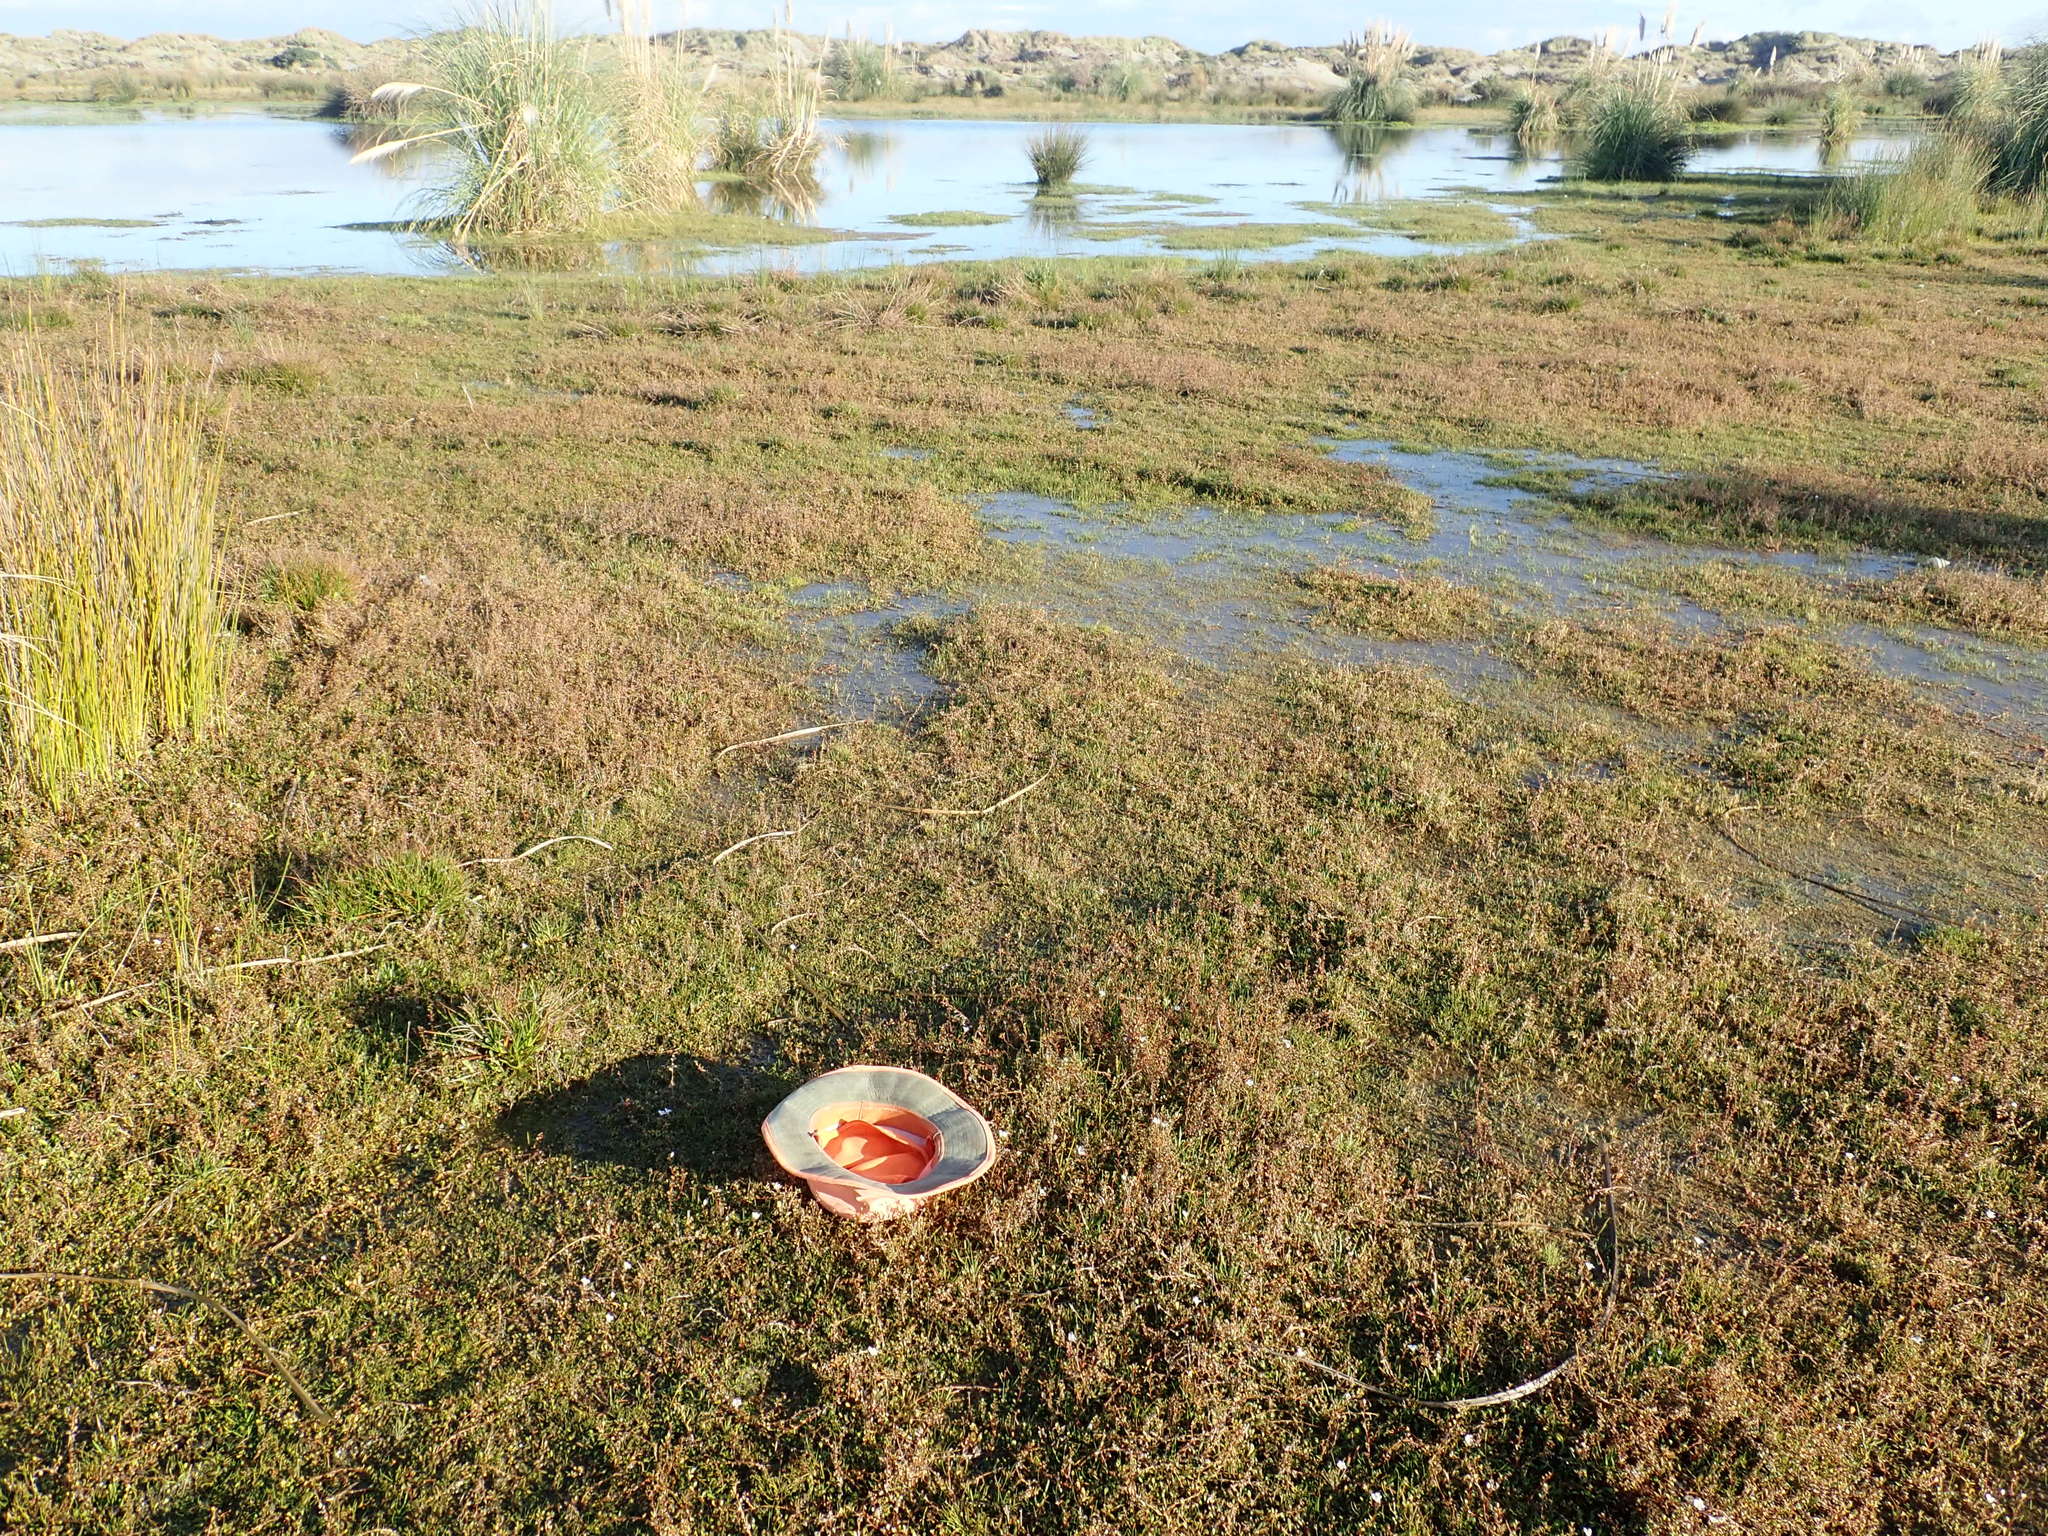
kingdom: Plantae
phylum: Tracheophyta
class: Magnoliopsida
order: Ericales
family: Primulaceae
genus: Samolus
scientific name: Samolus repens
